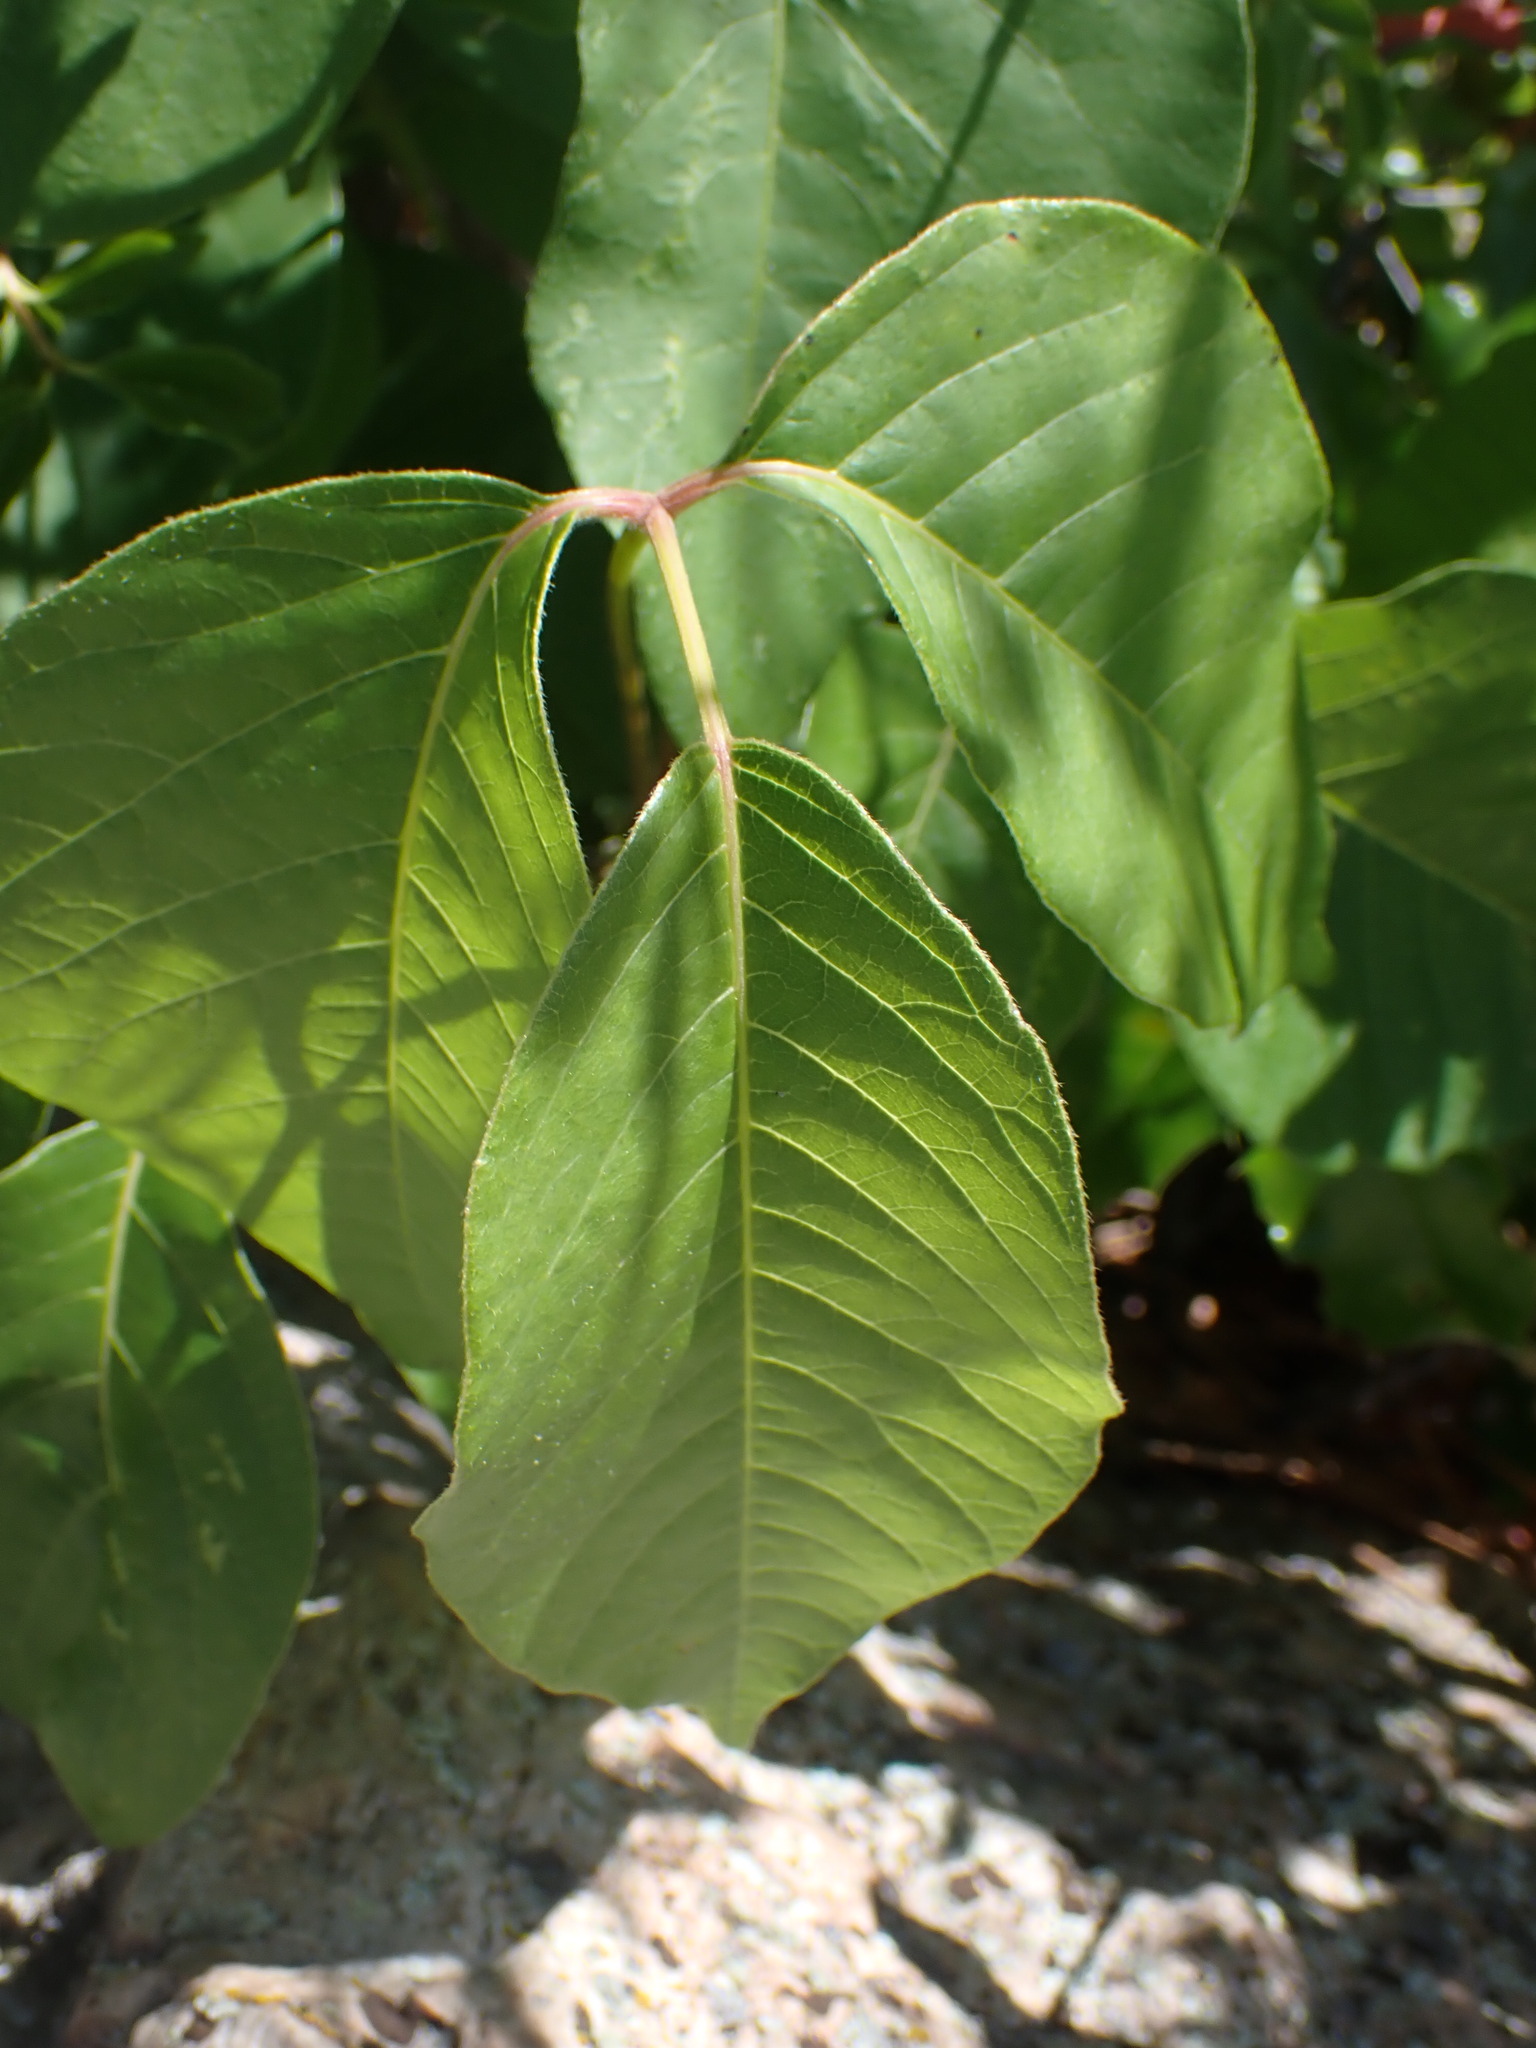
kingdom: Plantae
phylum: Tracheophyta
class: Magnoliopsida
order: Sapindales
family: Anacardiaceae
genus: Toxicodendron
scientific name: Toxicodendron rydbergii
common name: Rydberg's poison-ivy
